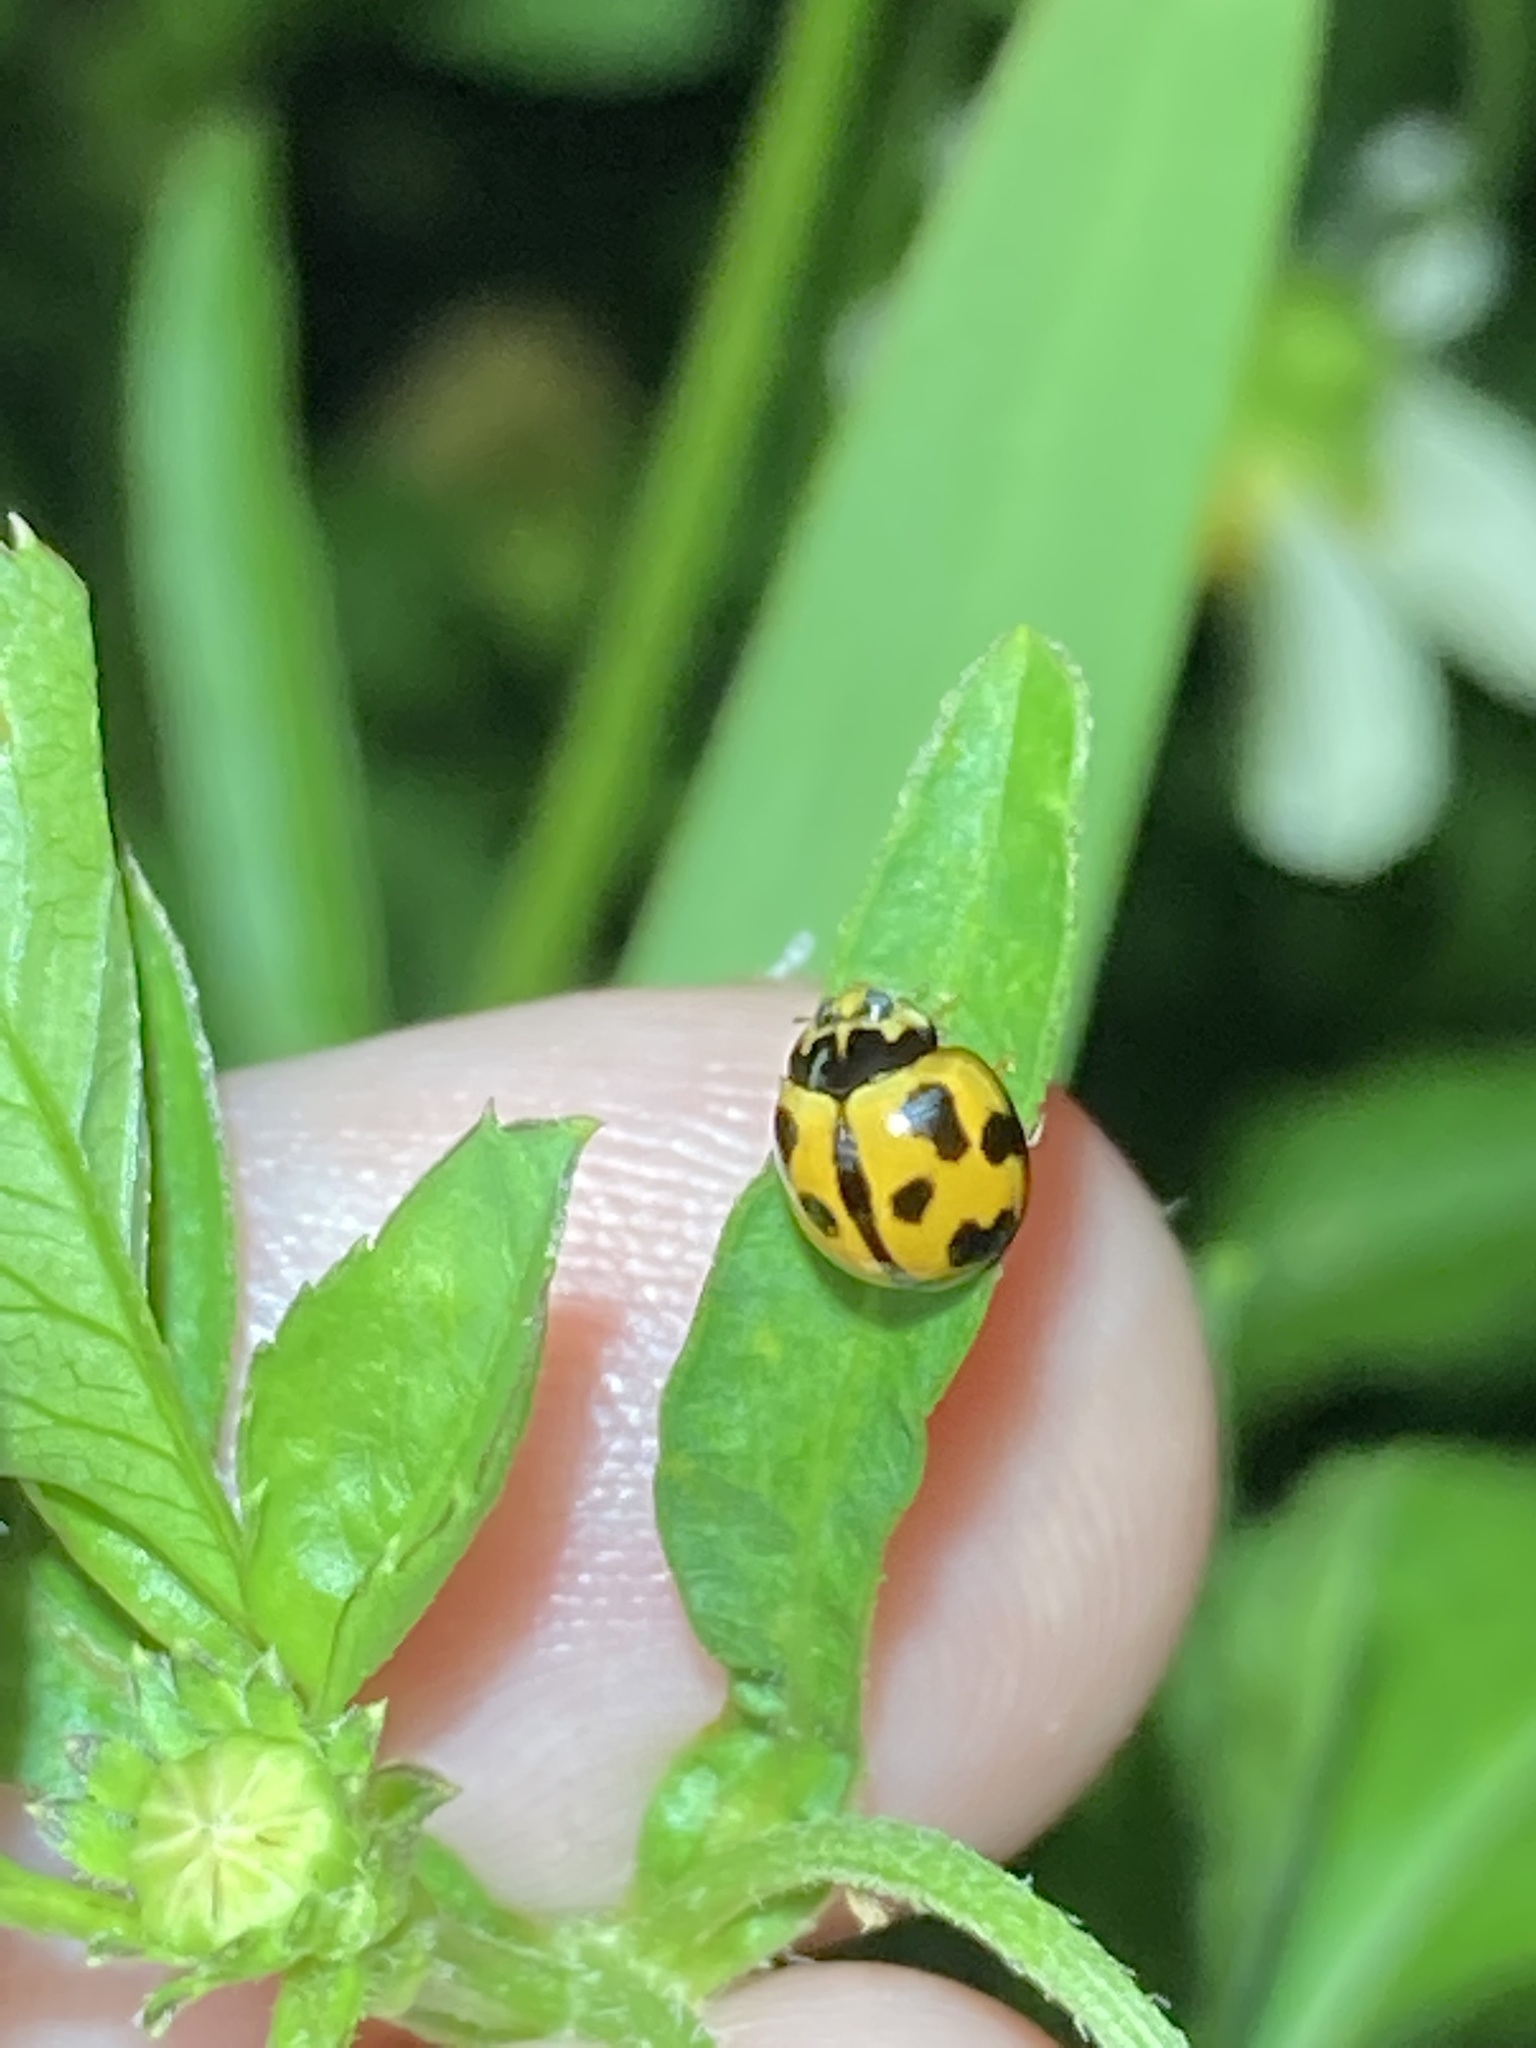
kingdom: Animalia
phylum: Arthropoda
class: Insecta
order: Coleoptera
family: Coccinellidae
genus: Coelophora
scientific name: Coelophora inaequalis
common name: Common australian lady beetle
